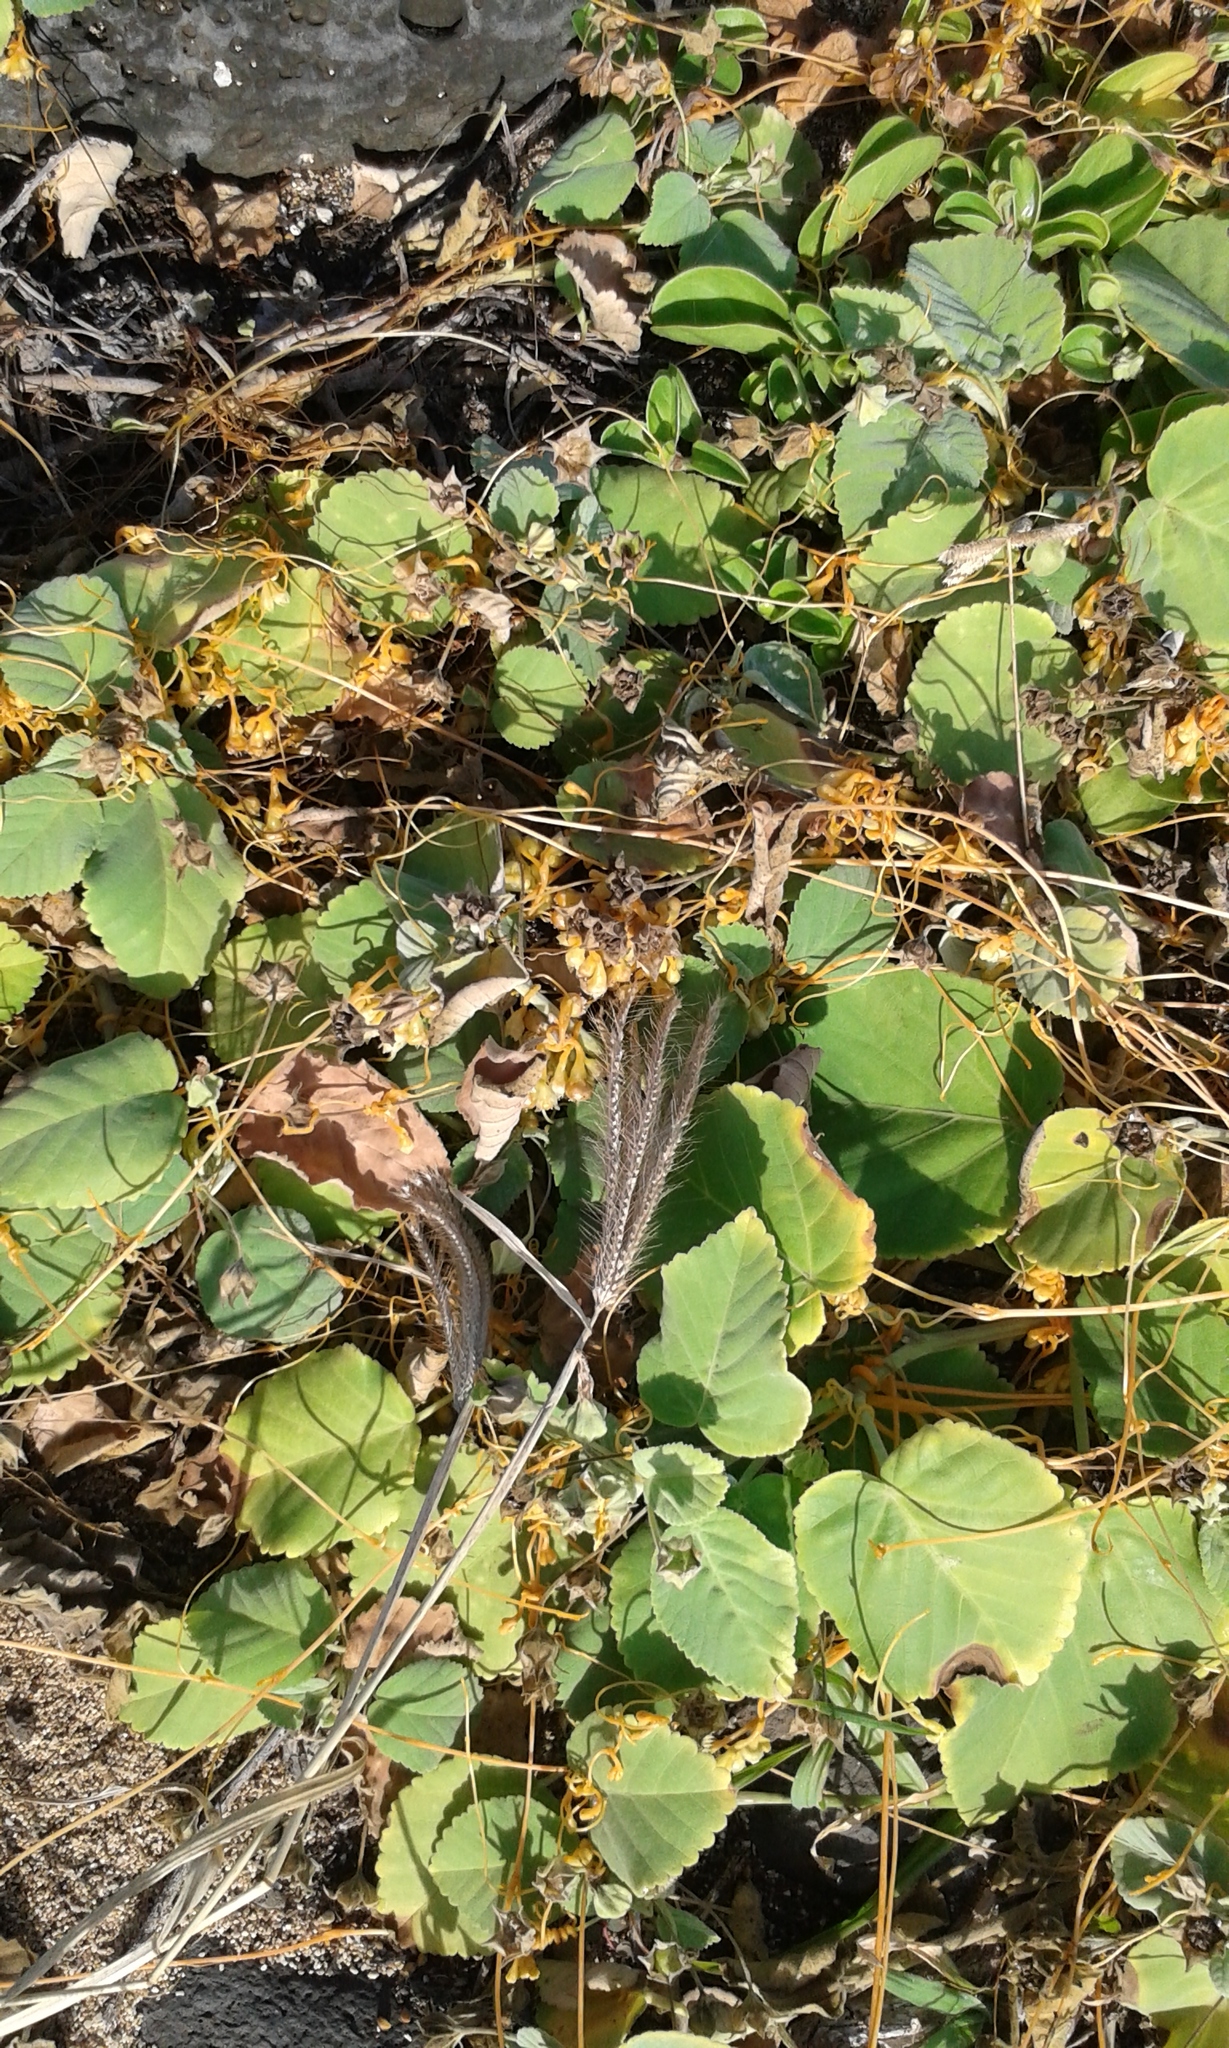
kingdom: Plantae
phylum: Tracheophyta
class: Magnoliopsida
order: Solanales
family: Convolvulaceae
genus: Cuscuta
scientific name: Cuscuta sandwichiana
